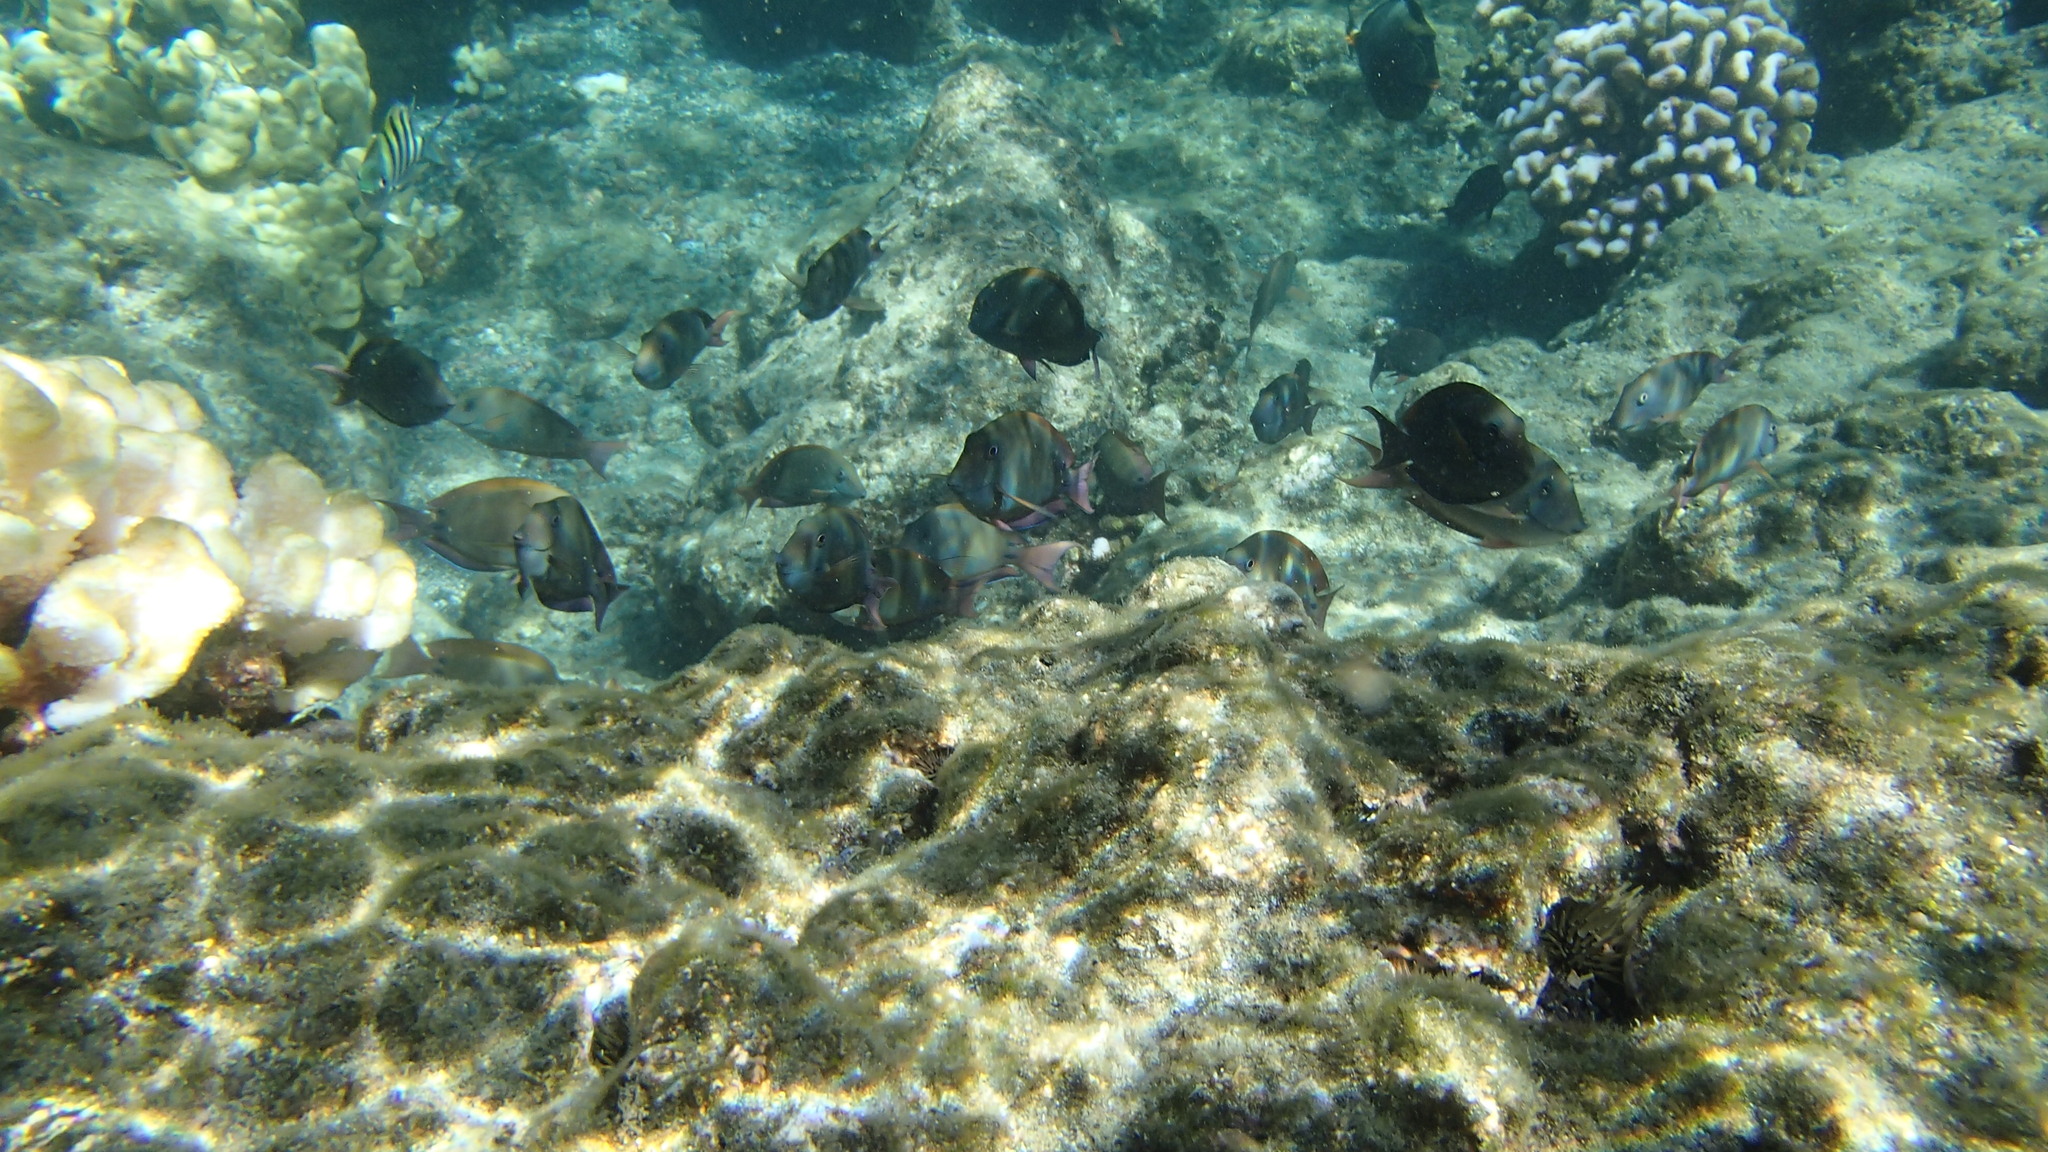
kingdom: Animalia
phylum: Chordata
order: Perciformes
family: Acanthuridae
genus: Acanthurus
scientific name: Acanthurus nigrofuscus
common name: Blackspot surgeonfish
